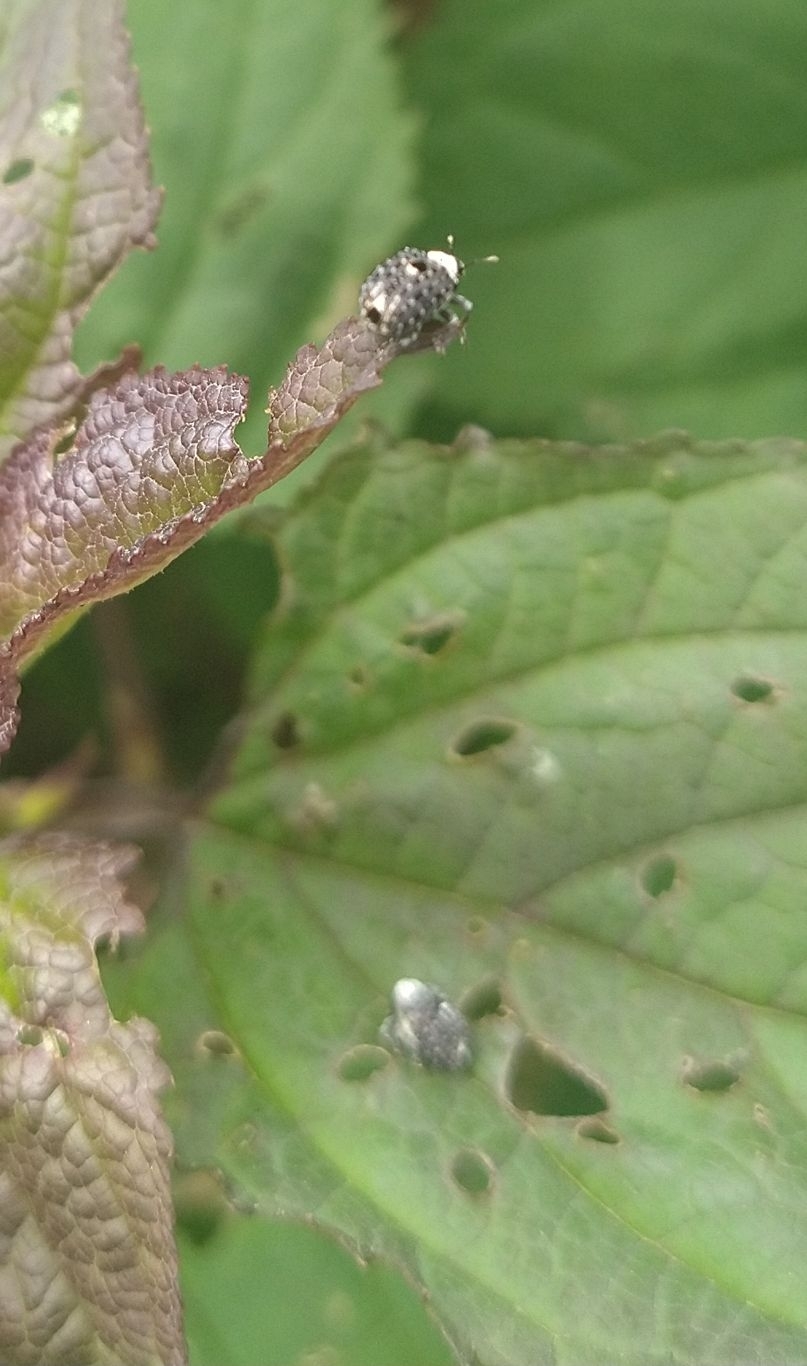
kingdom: Animalia
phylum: Arthropoda
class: Insecta
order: Coleoptera
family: Curculionidae
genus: Cionus
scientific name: Cionus scrophulariae
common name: Common figwort weevil
